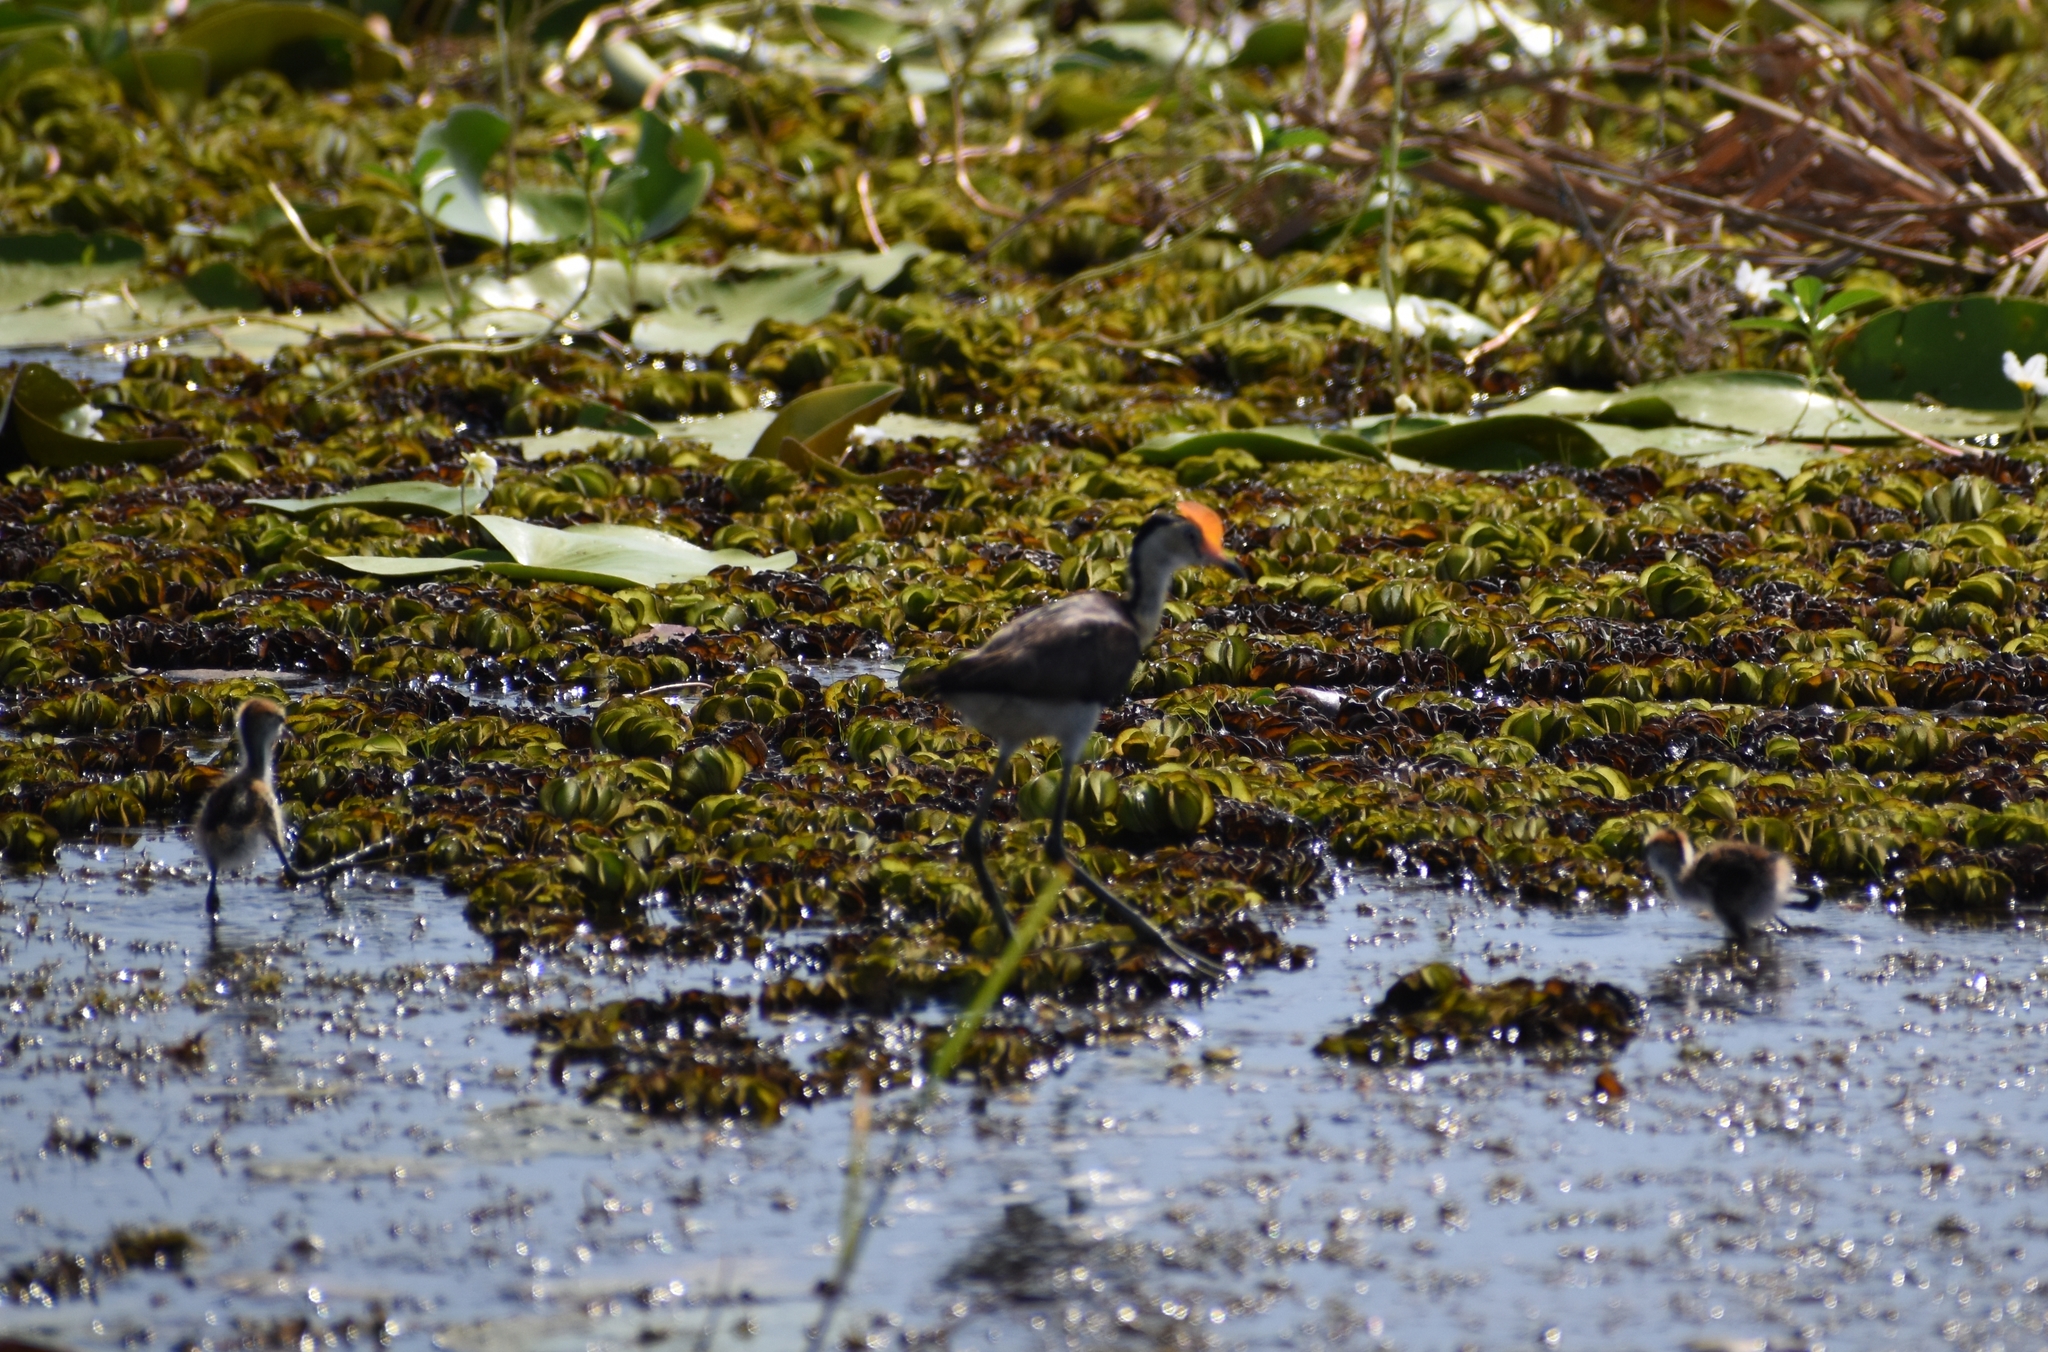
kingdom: Animalia
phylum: Chordata
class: Aves
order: Charadriiformes
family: Jacanidae
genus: Irediparra
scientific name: Irediparra gallinacea
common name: Comb-crested jacana
